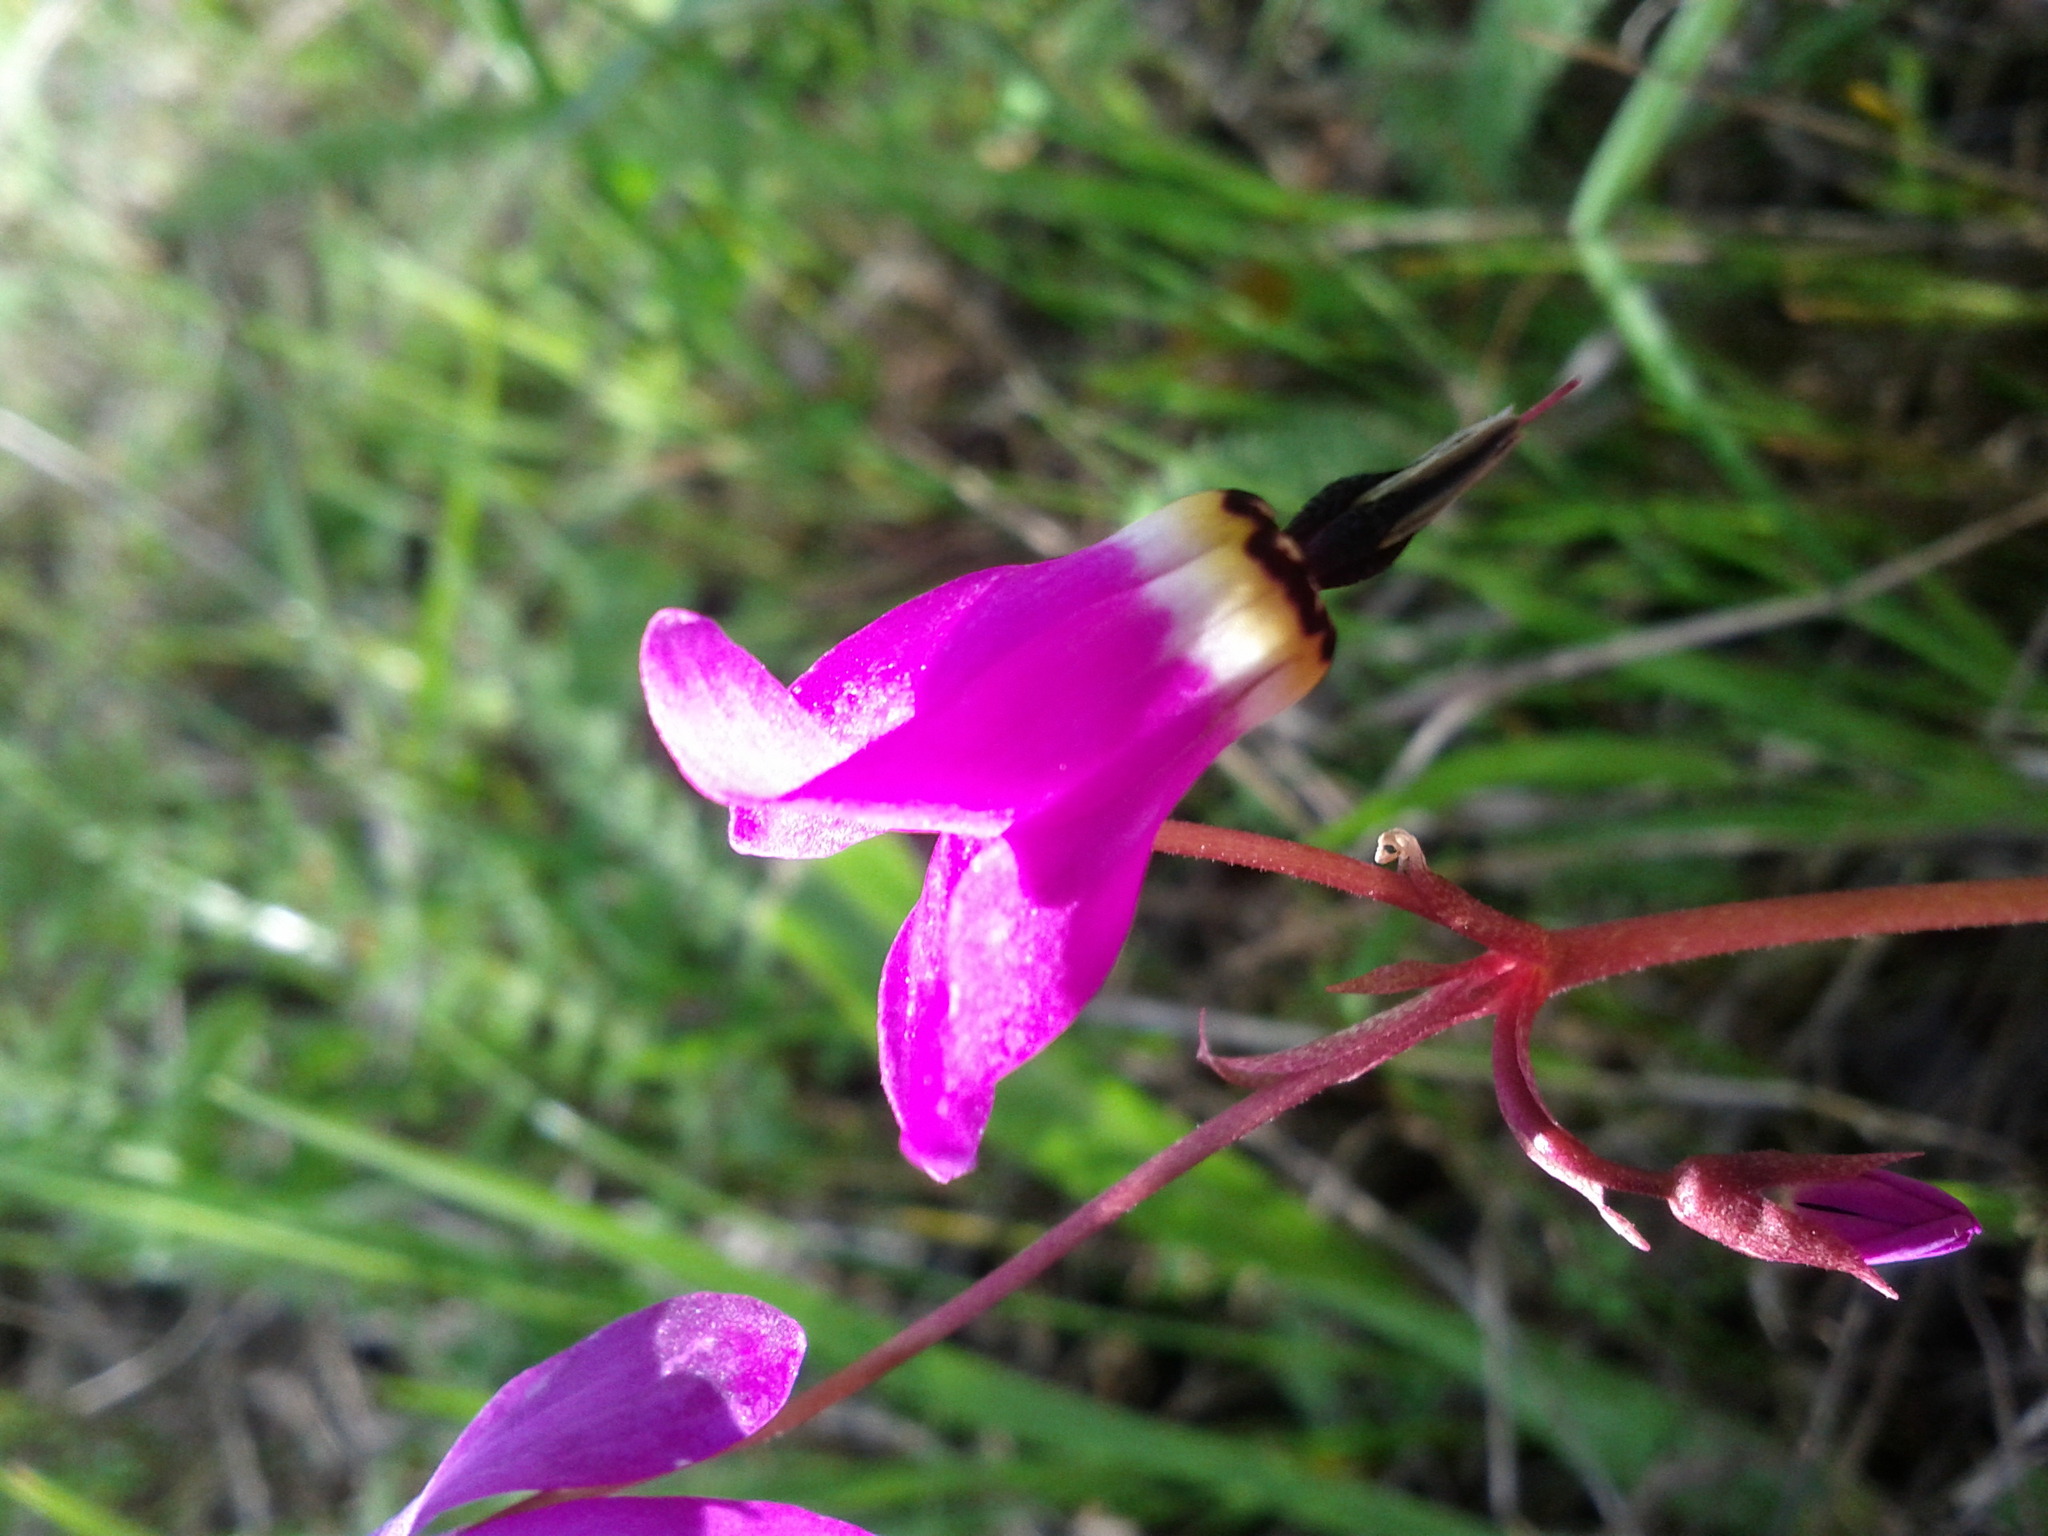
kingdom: Plantae
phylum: Tracheophyta
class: Magnoliopsida
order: Ericales
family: Primulaceae
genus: Dodecatheon
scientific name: Dodecatheon hendersonii
